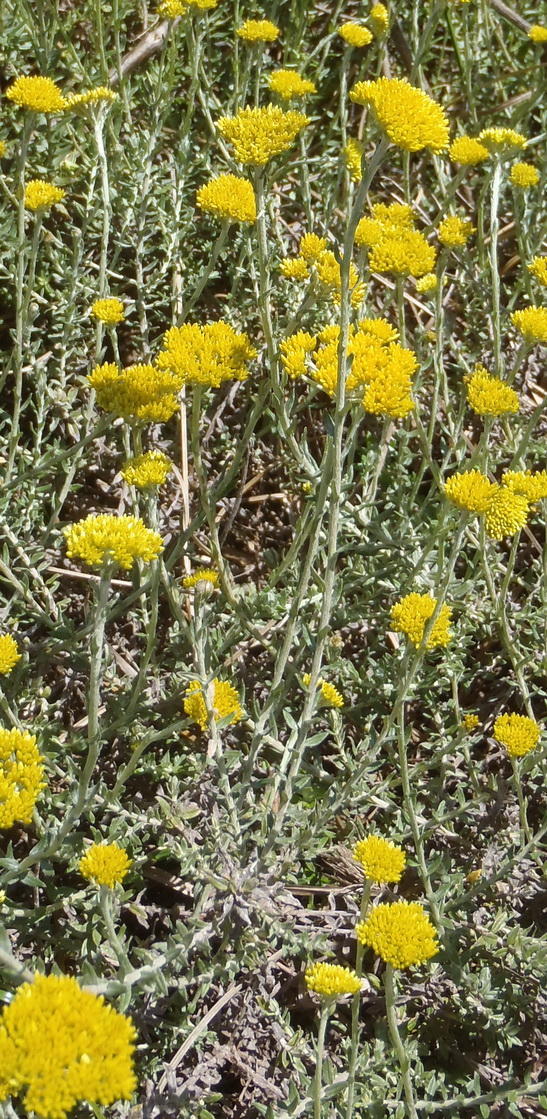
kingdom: Plantae
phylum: Tracheophyta
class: Magnoliopsida
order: Asterales
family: Asteraceae
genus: Helichrysum
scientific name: Helichrysum cymosum
